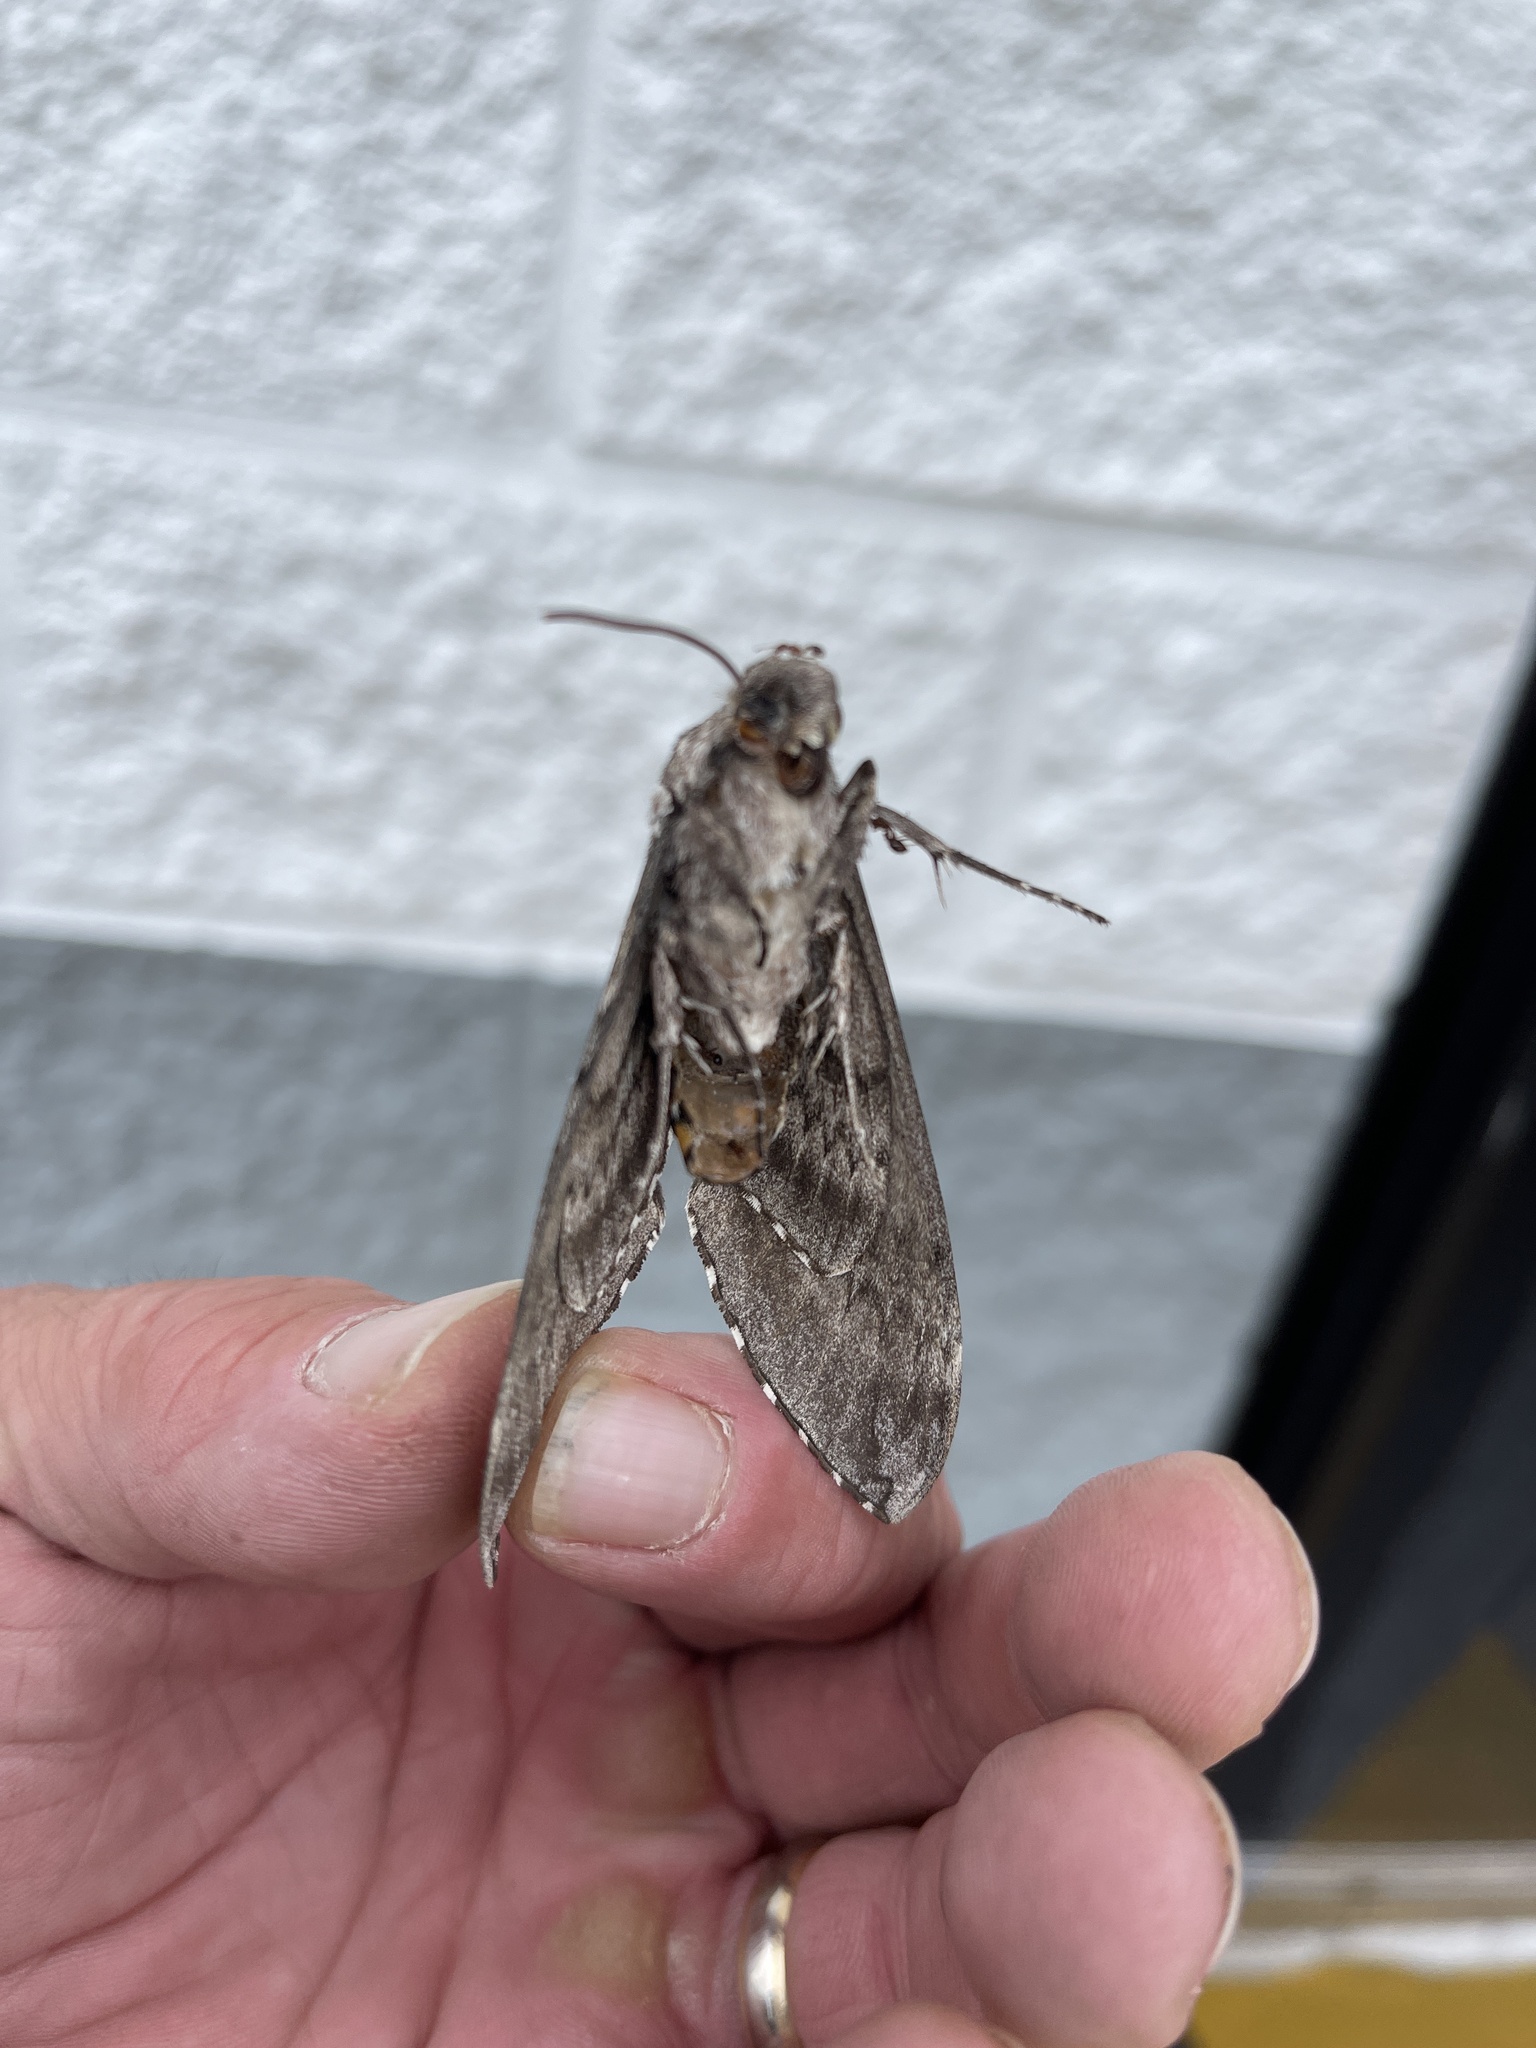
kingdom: Animalia
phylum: Arthropoda
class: Insecta
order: Lepidoptera
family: Sphingidae
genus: Manduca
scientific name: Manduca sexta
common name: Carolina sphinx
